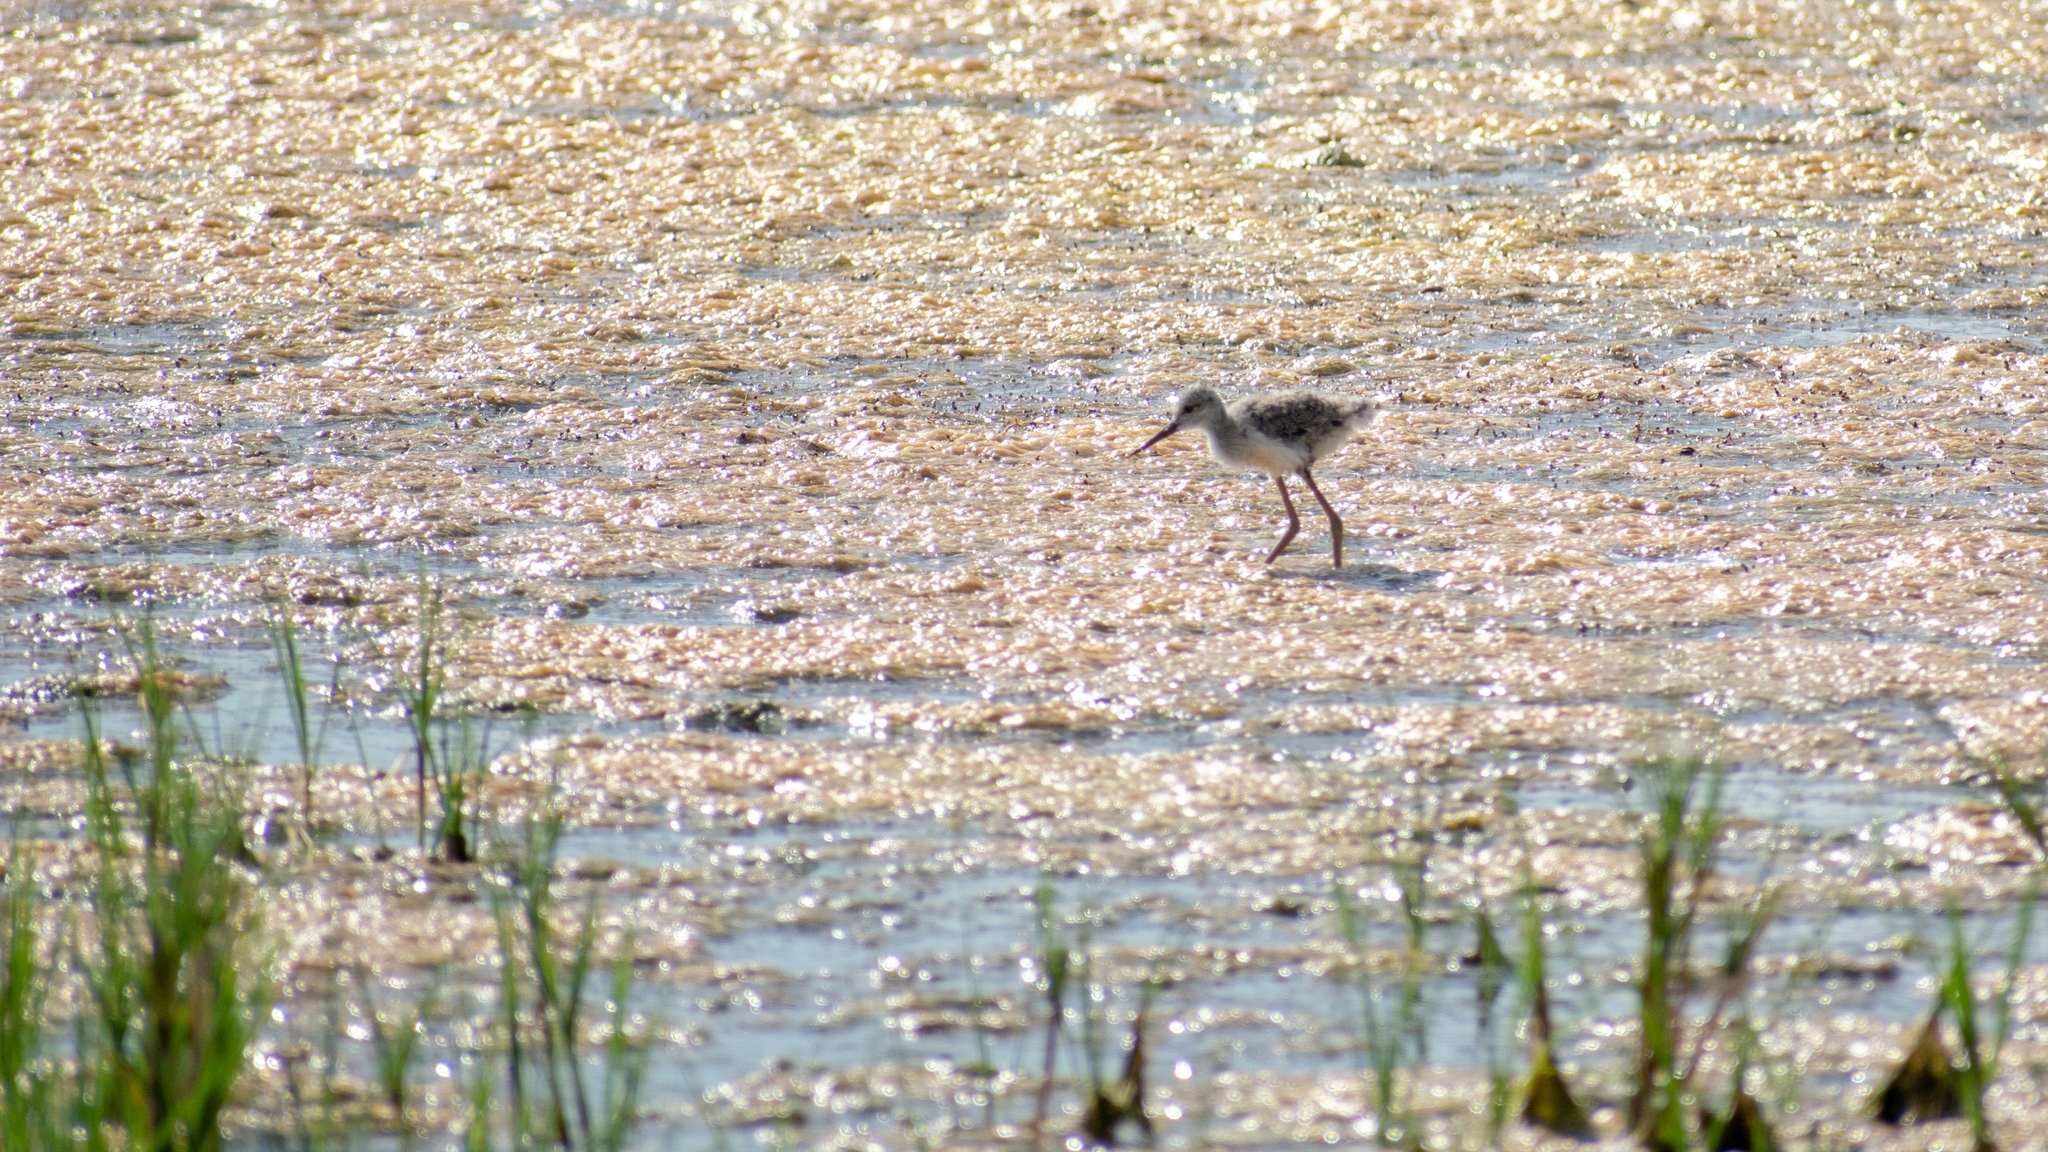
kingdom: Animalia
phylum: Chordata
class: Aves
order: Charadriiformes
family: Recurvirostridae
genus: Himantopus
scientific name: Himantopus himantopus
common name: Black-winged stilt
